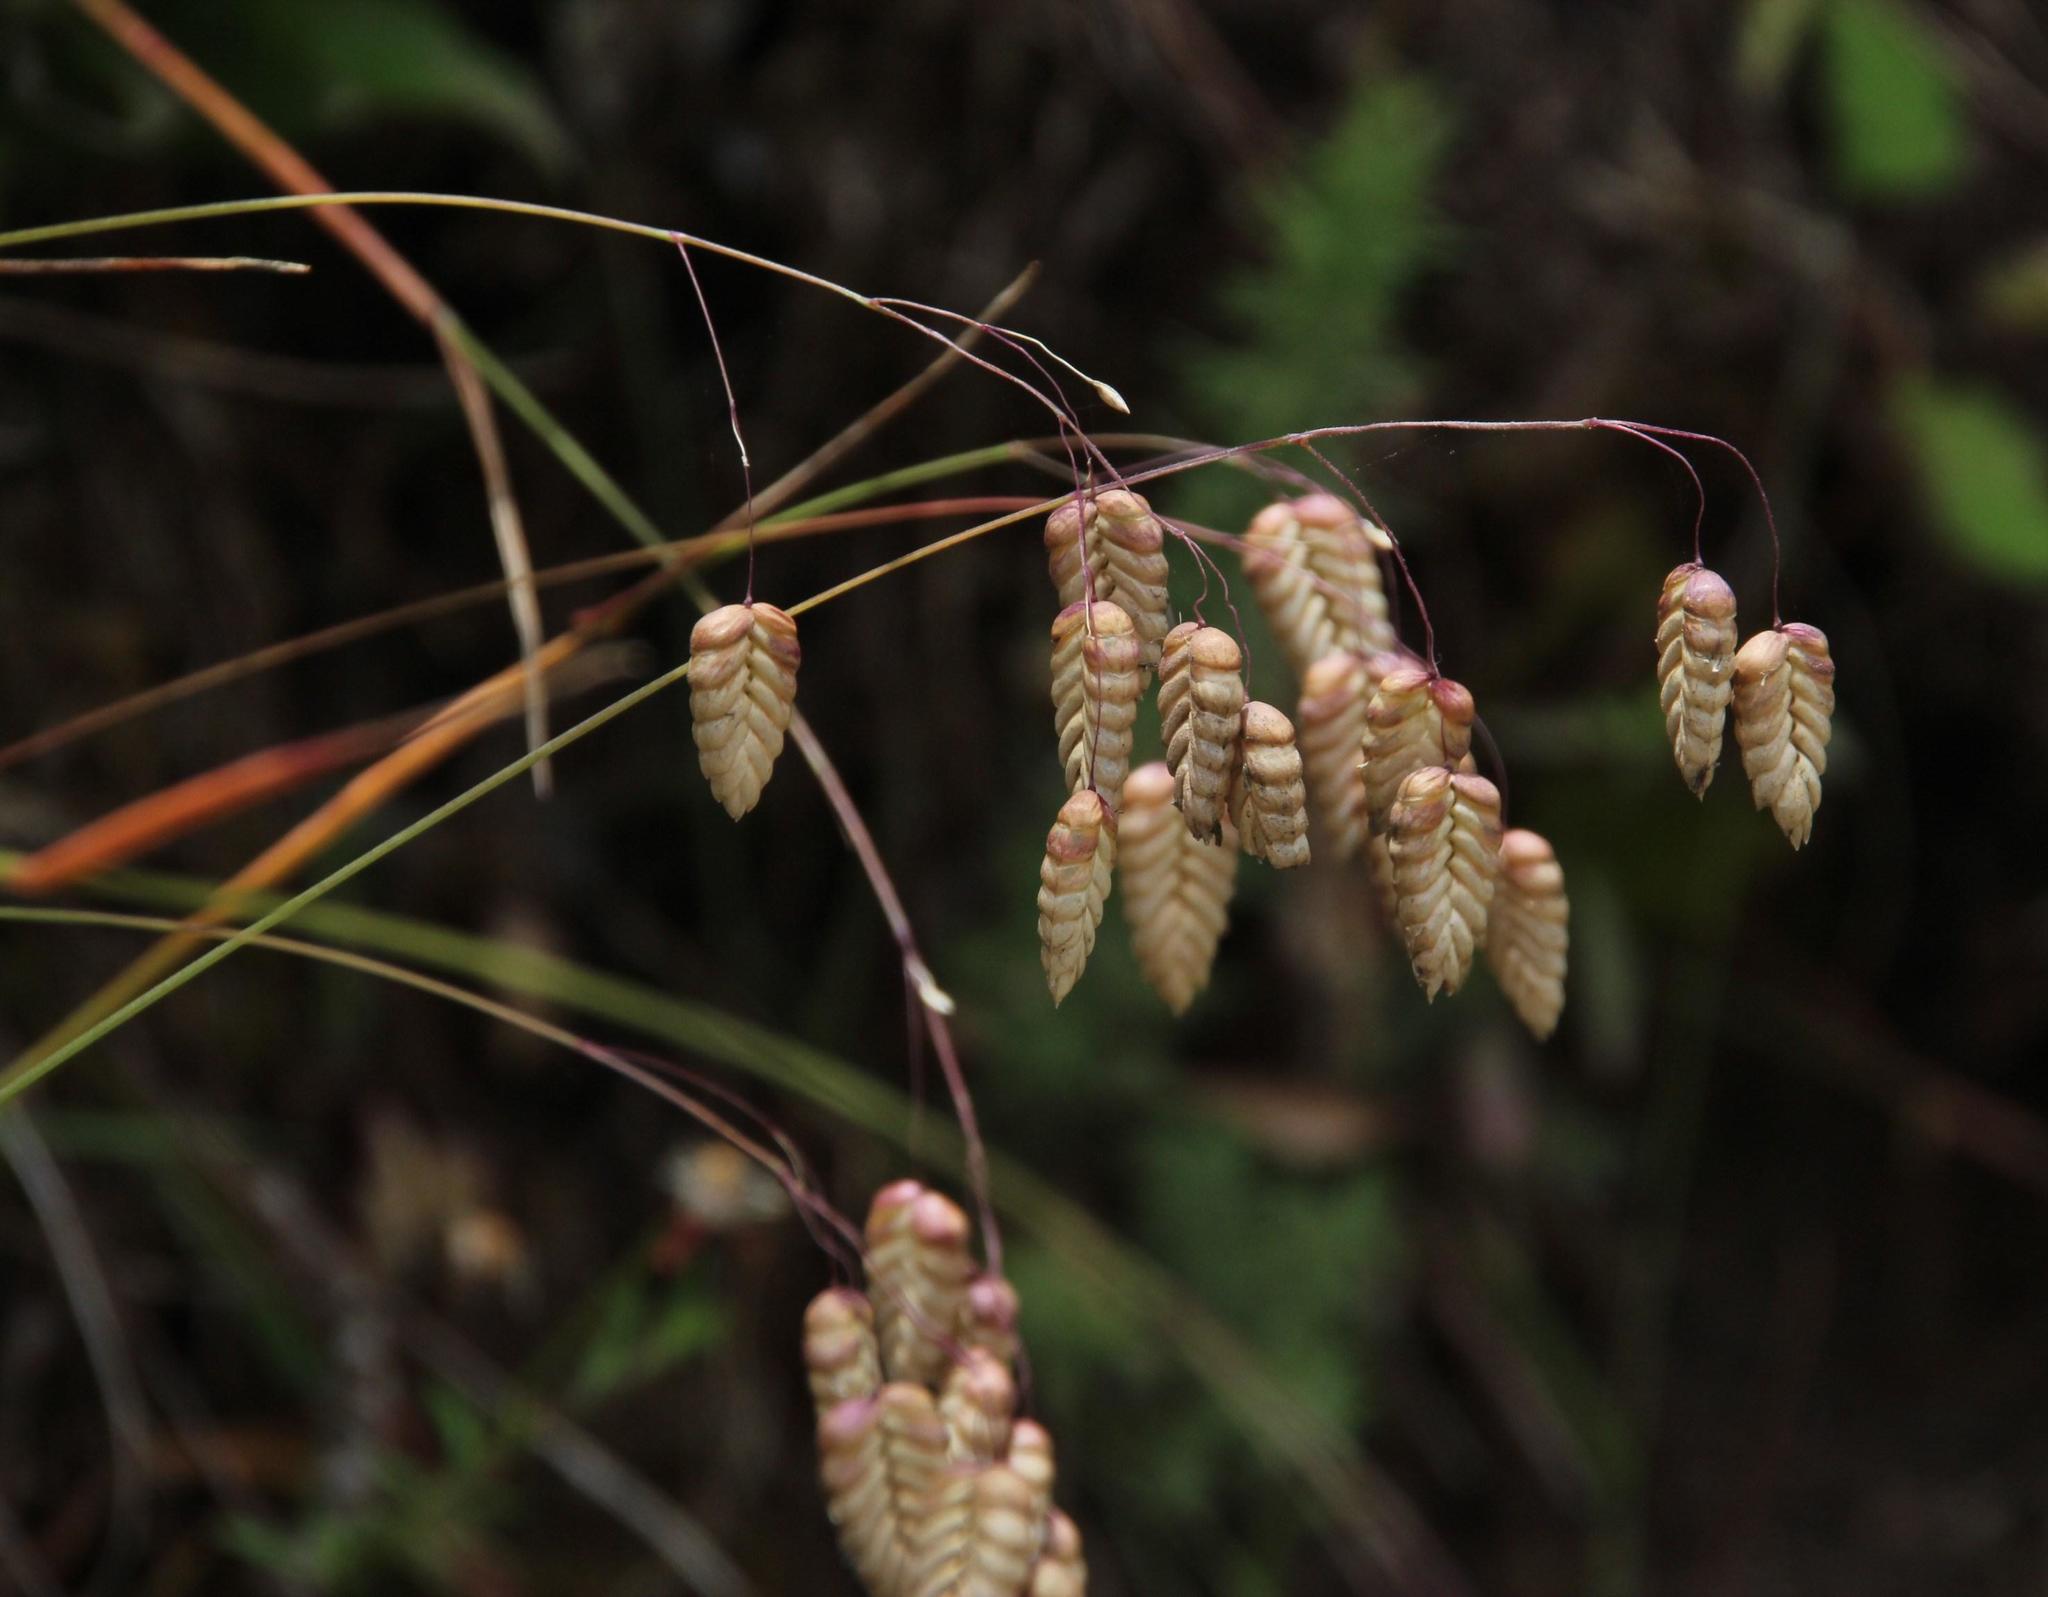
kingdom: Plantae
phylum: Tracheophyta
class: Liliopsida
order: Poales
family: Poaceae
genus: Briza
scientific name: Briza maxima
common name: Big quakinggrass
